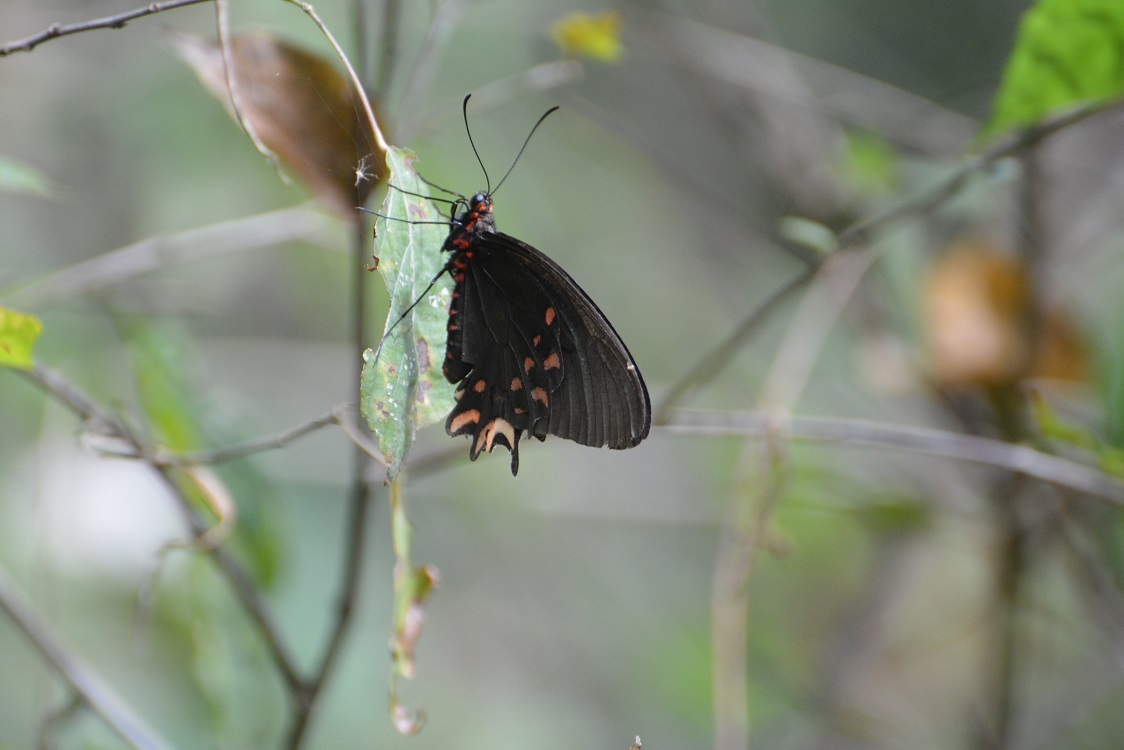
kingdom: Animalia
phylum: Arthropoda
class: Insecta
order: Lepidoptera
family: Papilionidae
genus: Parides
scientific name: Parides photinus
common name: Pink-spotted cattleheart
